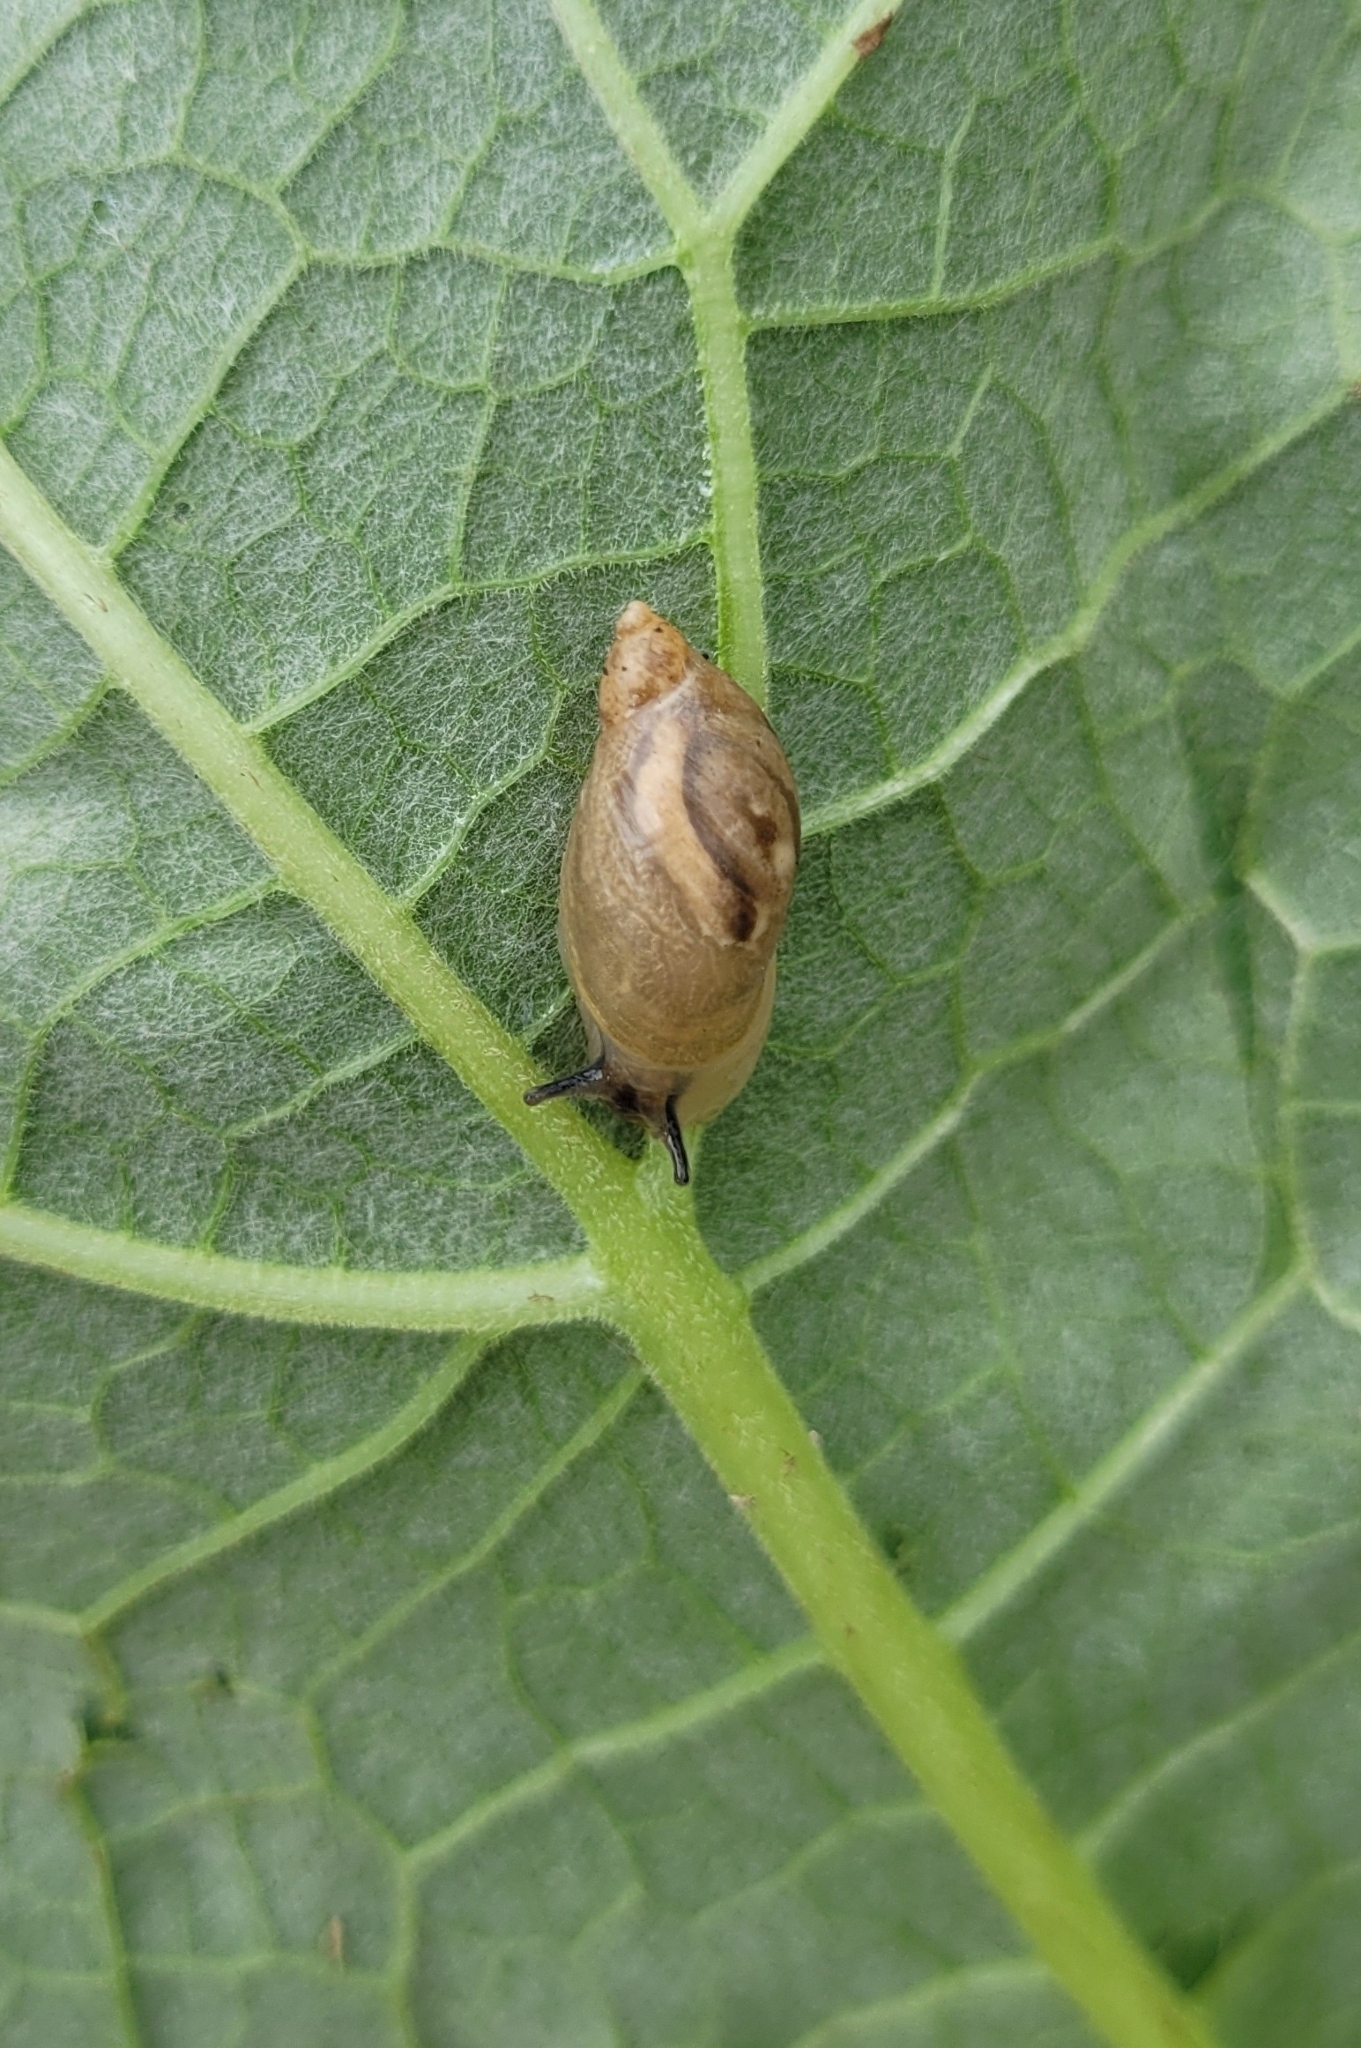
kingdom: Animalia
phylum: Mollusca
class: Gastropoda
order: Stylommatophora
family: Succineidae
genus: Succinea
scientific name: Succinea putris
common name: European ambersnail
